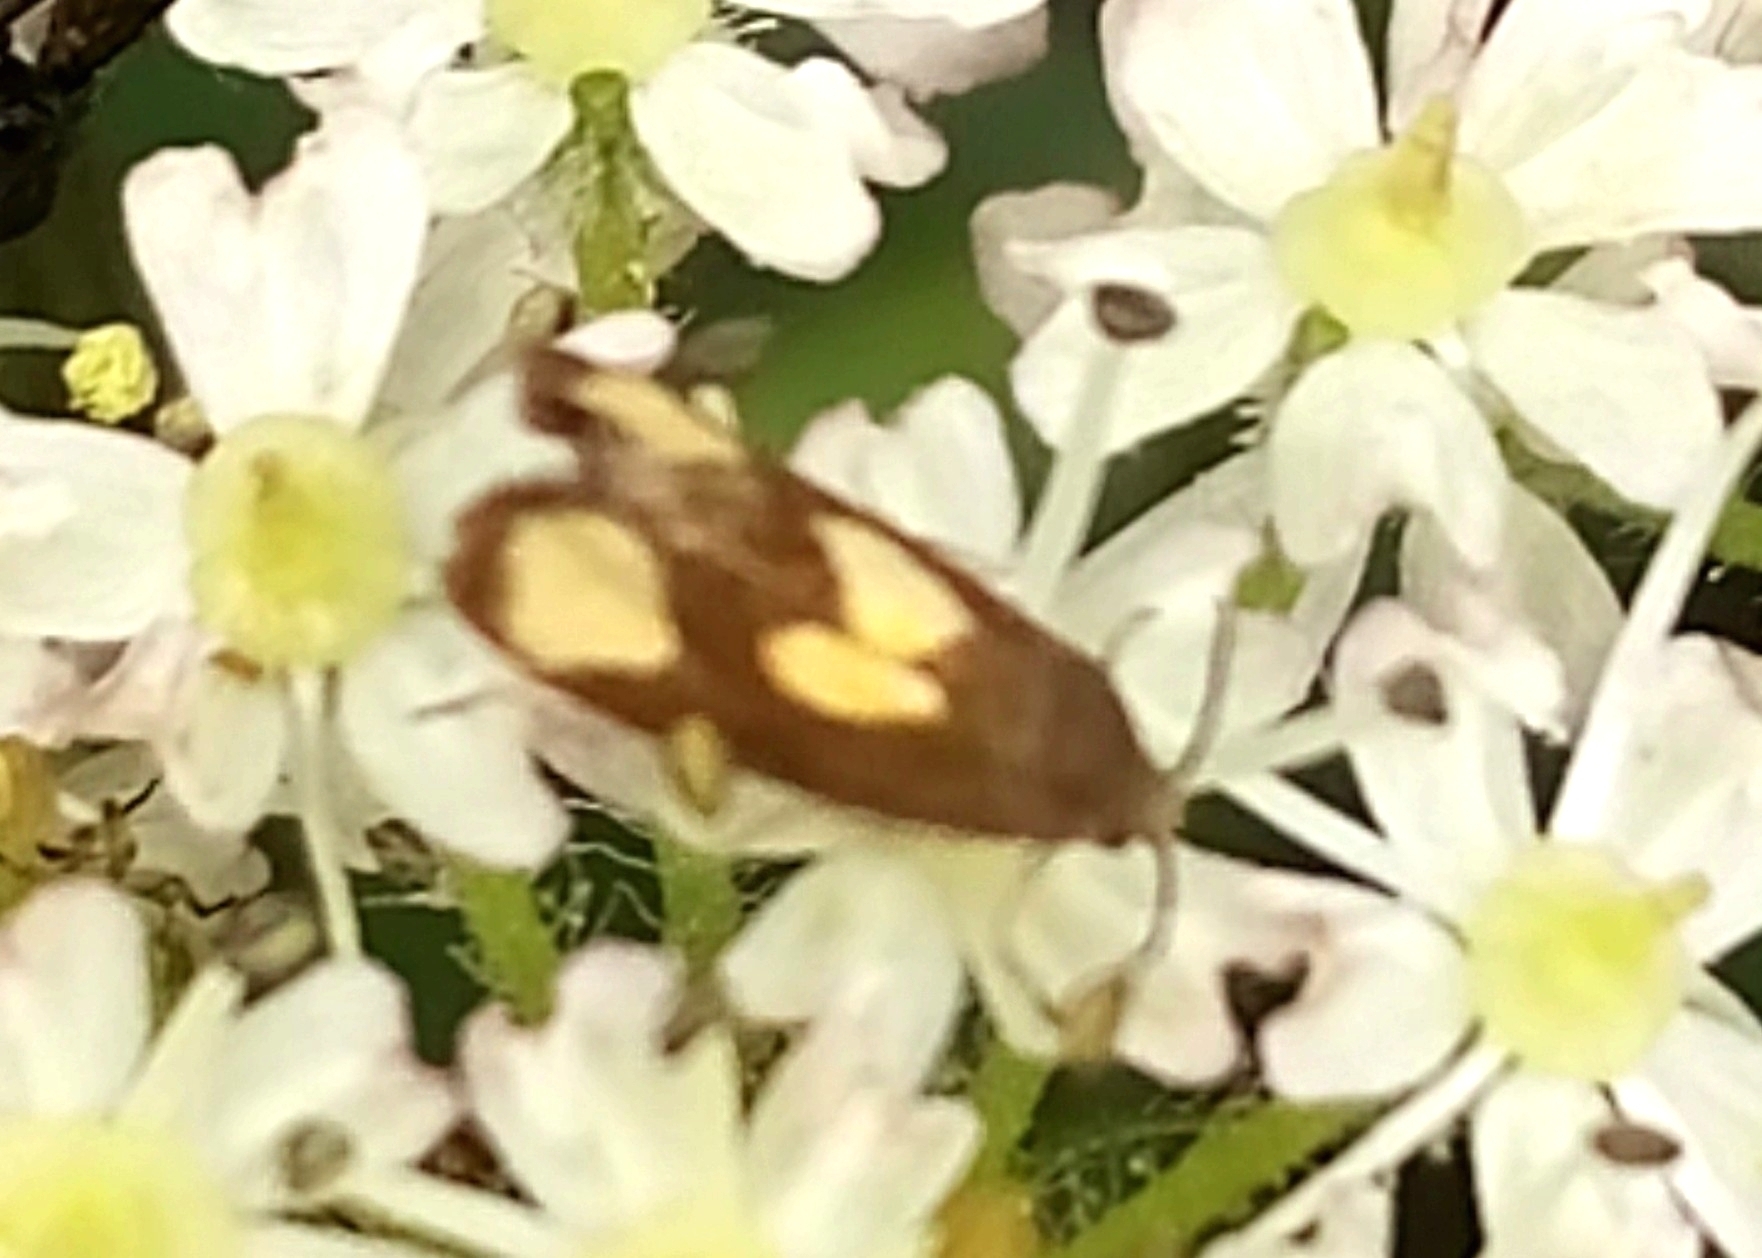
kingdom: Animalia
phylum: Arthropoda
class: Insecta
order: Lepidoptera
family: Tortricidae
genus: Pammene
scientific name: Pammene aurana
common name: Orange-spot piercer
